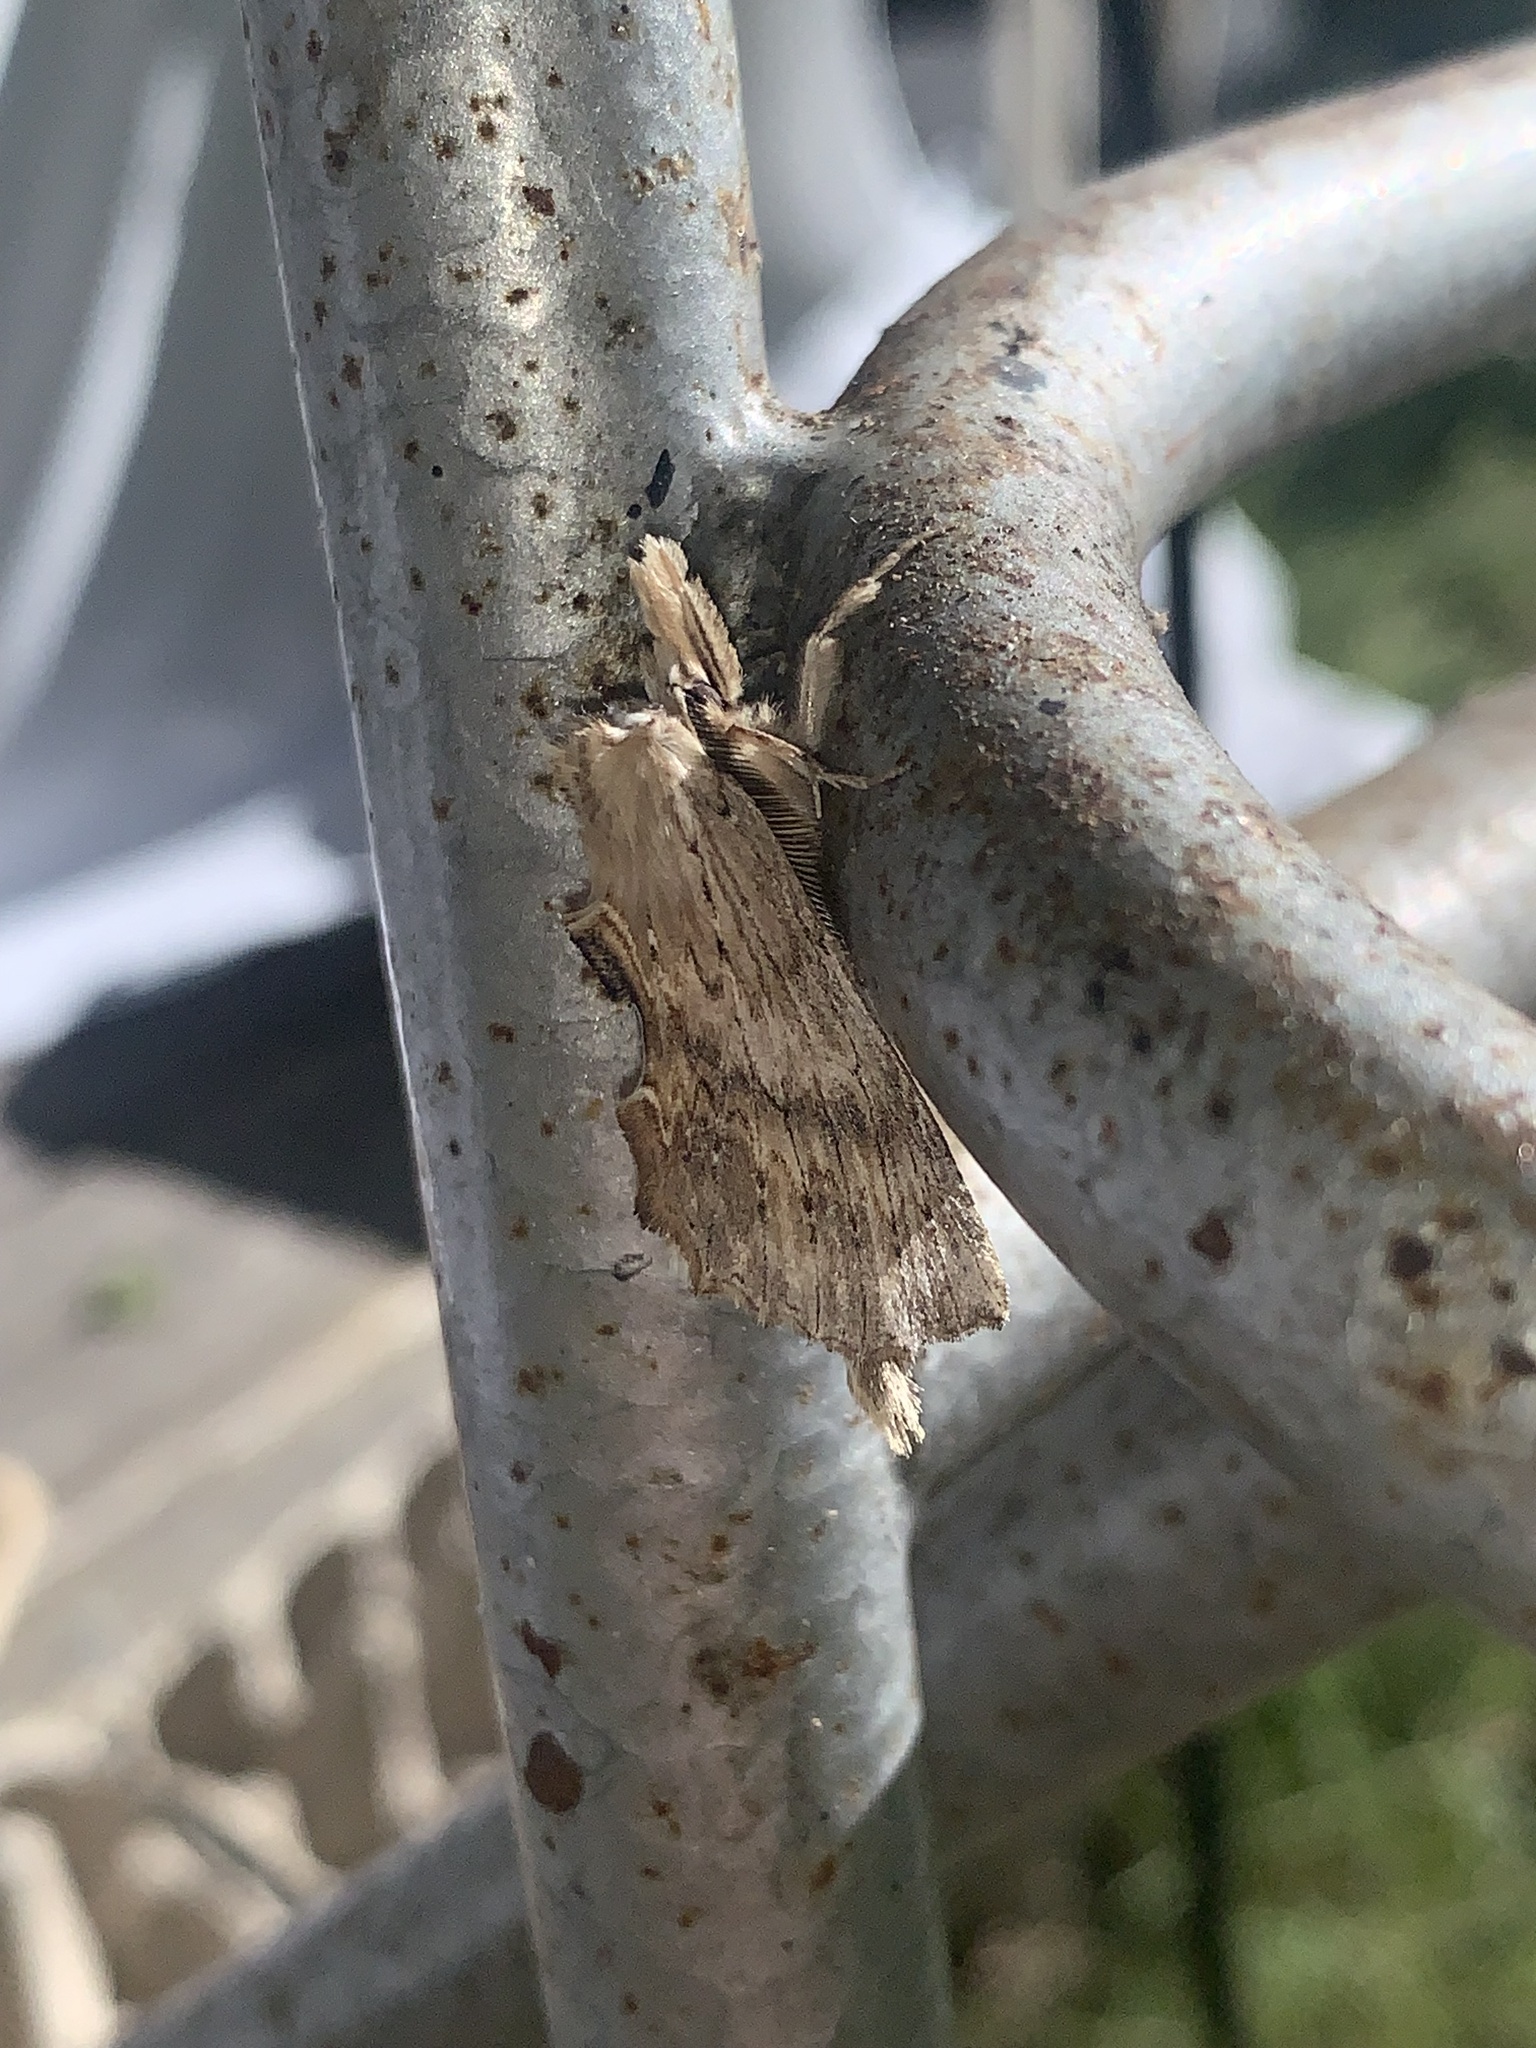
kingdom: Animalia
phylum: Arthropoda
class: Insecta
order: Lepidoptera
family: Notodontidae
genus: Pterostoma
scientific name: Pterostoma palpina
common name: Pale prominent
